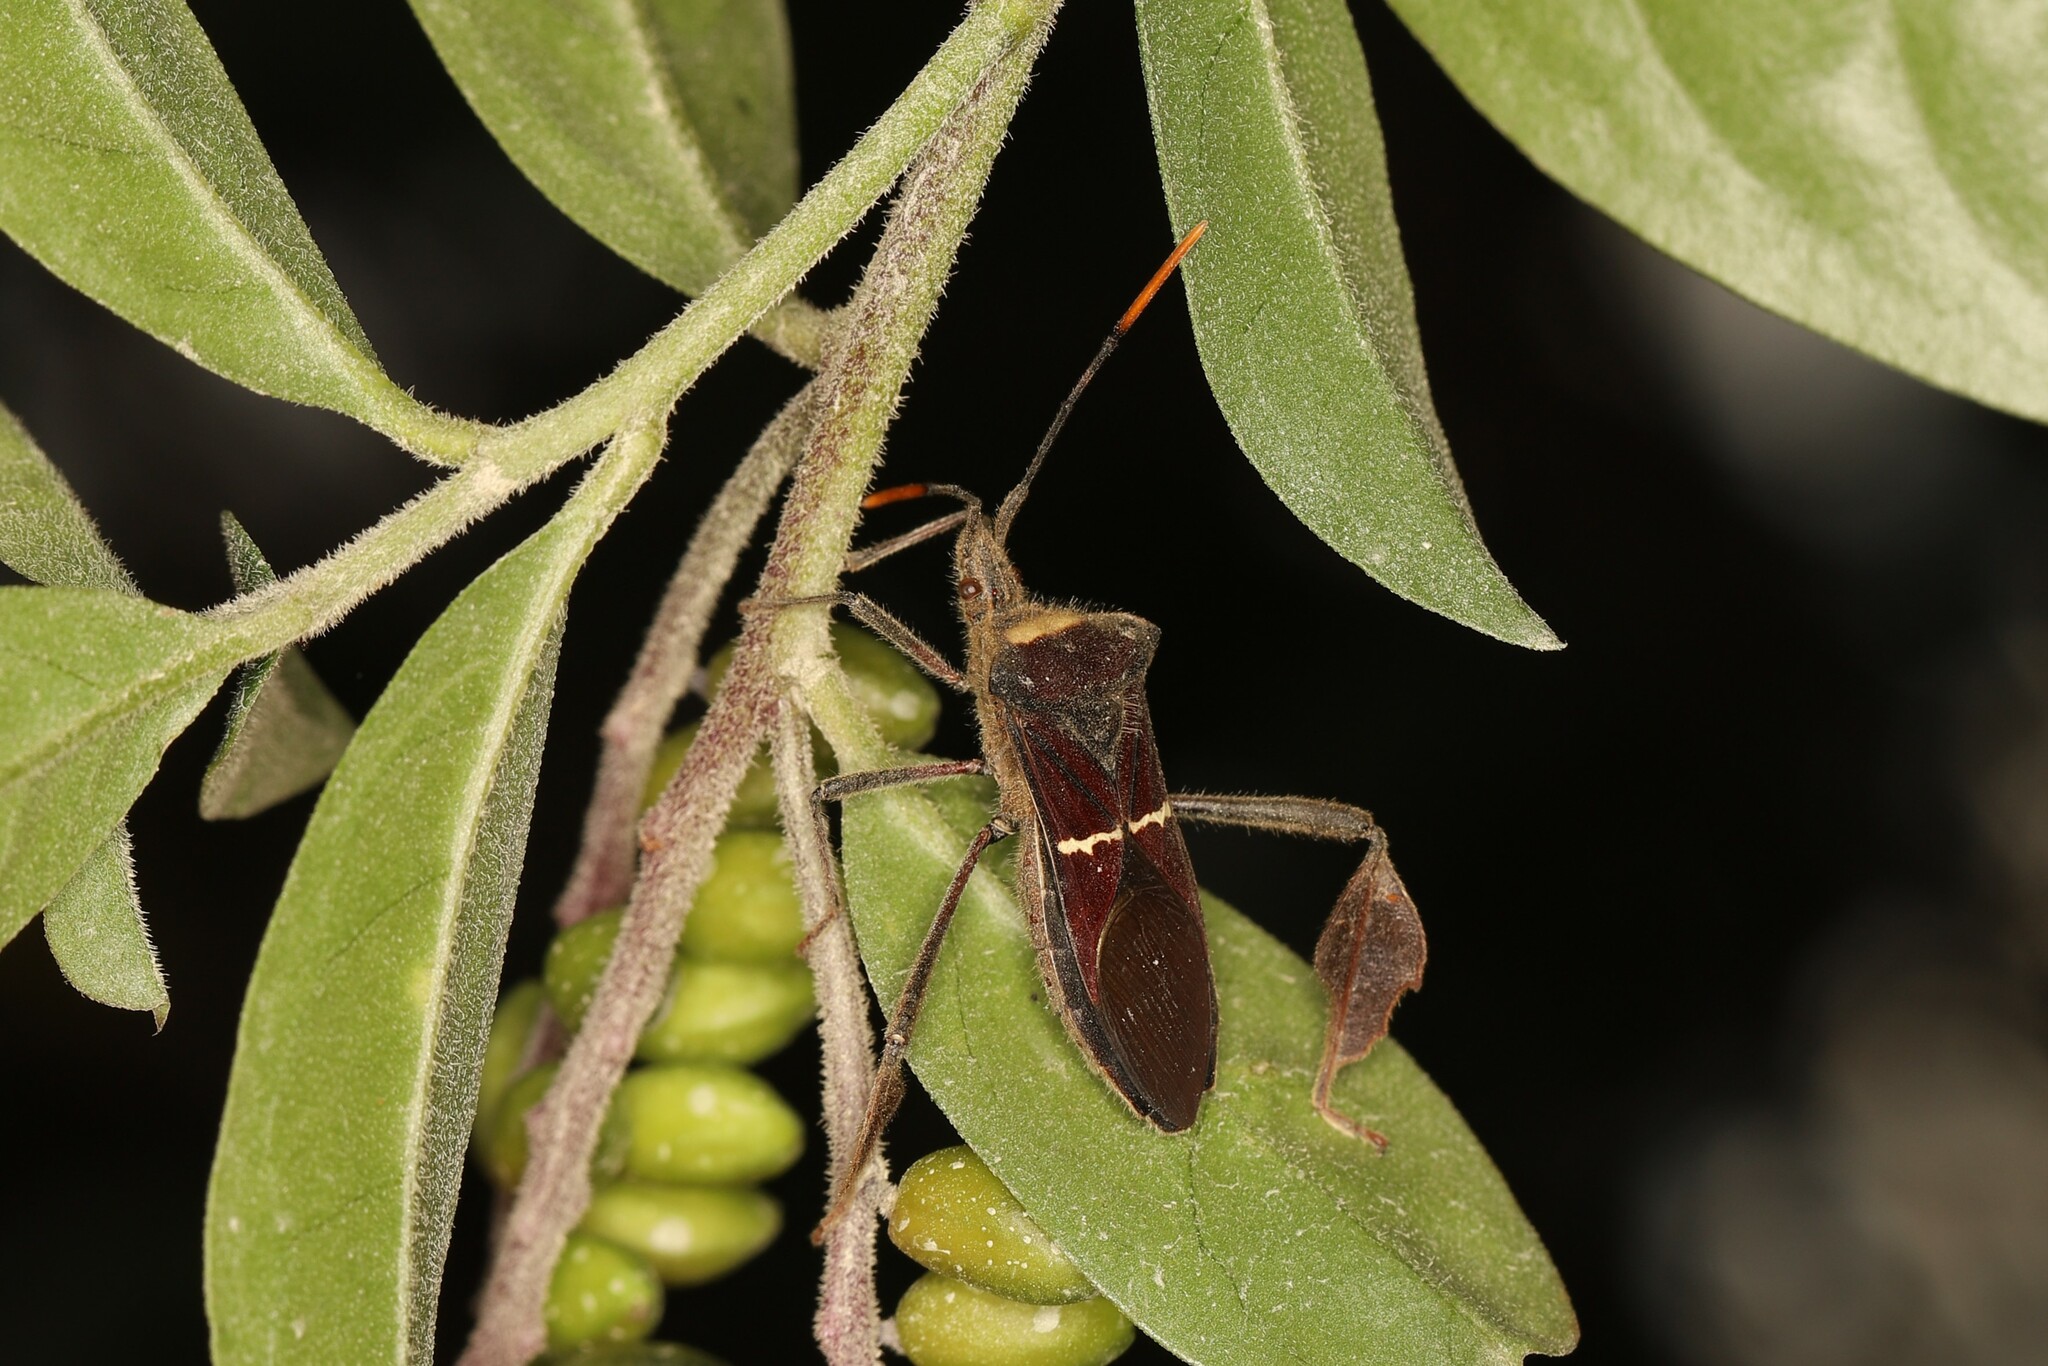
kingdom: Animalia
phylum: Arthropoda
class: Insecta
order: Hemiptera
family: Coreidae
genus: Leptoglossus
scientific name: Leptoglossus macrophyllus
